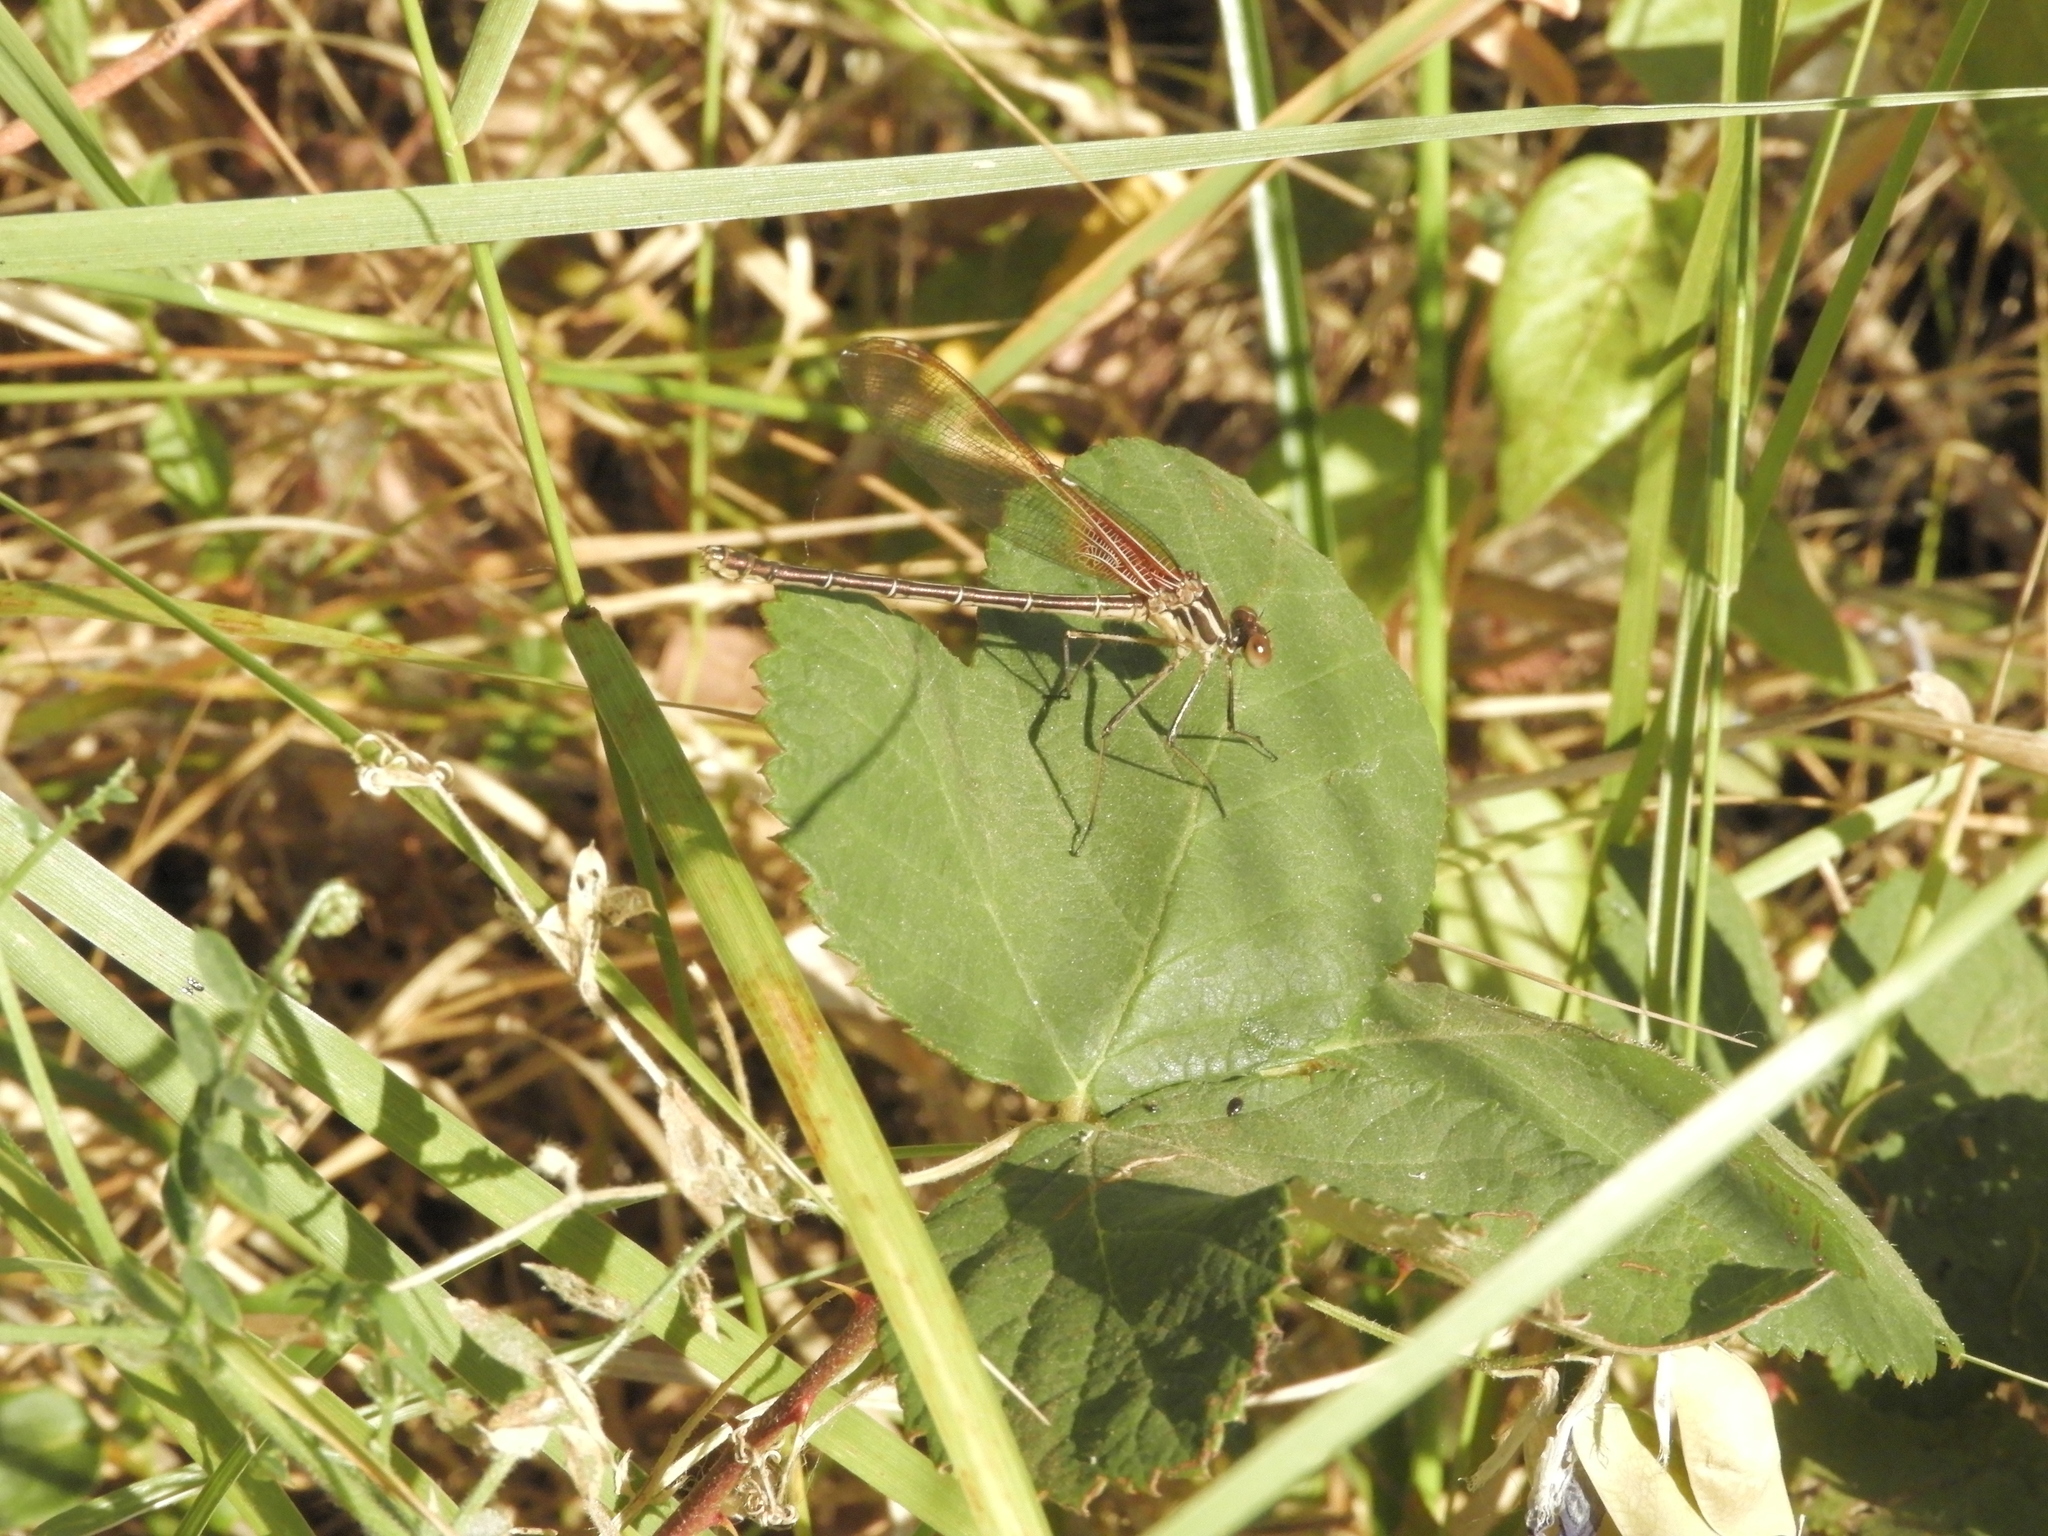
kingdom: Animalia
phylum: Arthropoda
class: Insecta
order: Odonata
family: Calopterygidae
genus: Hetaerina
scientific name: Hetaerina americana
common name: American rubyspot
